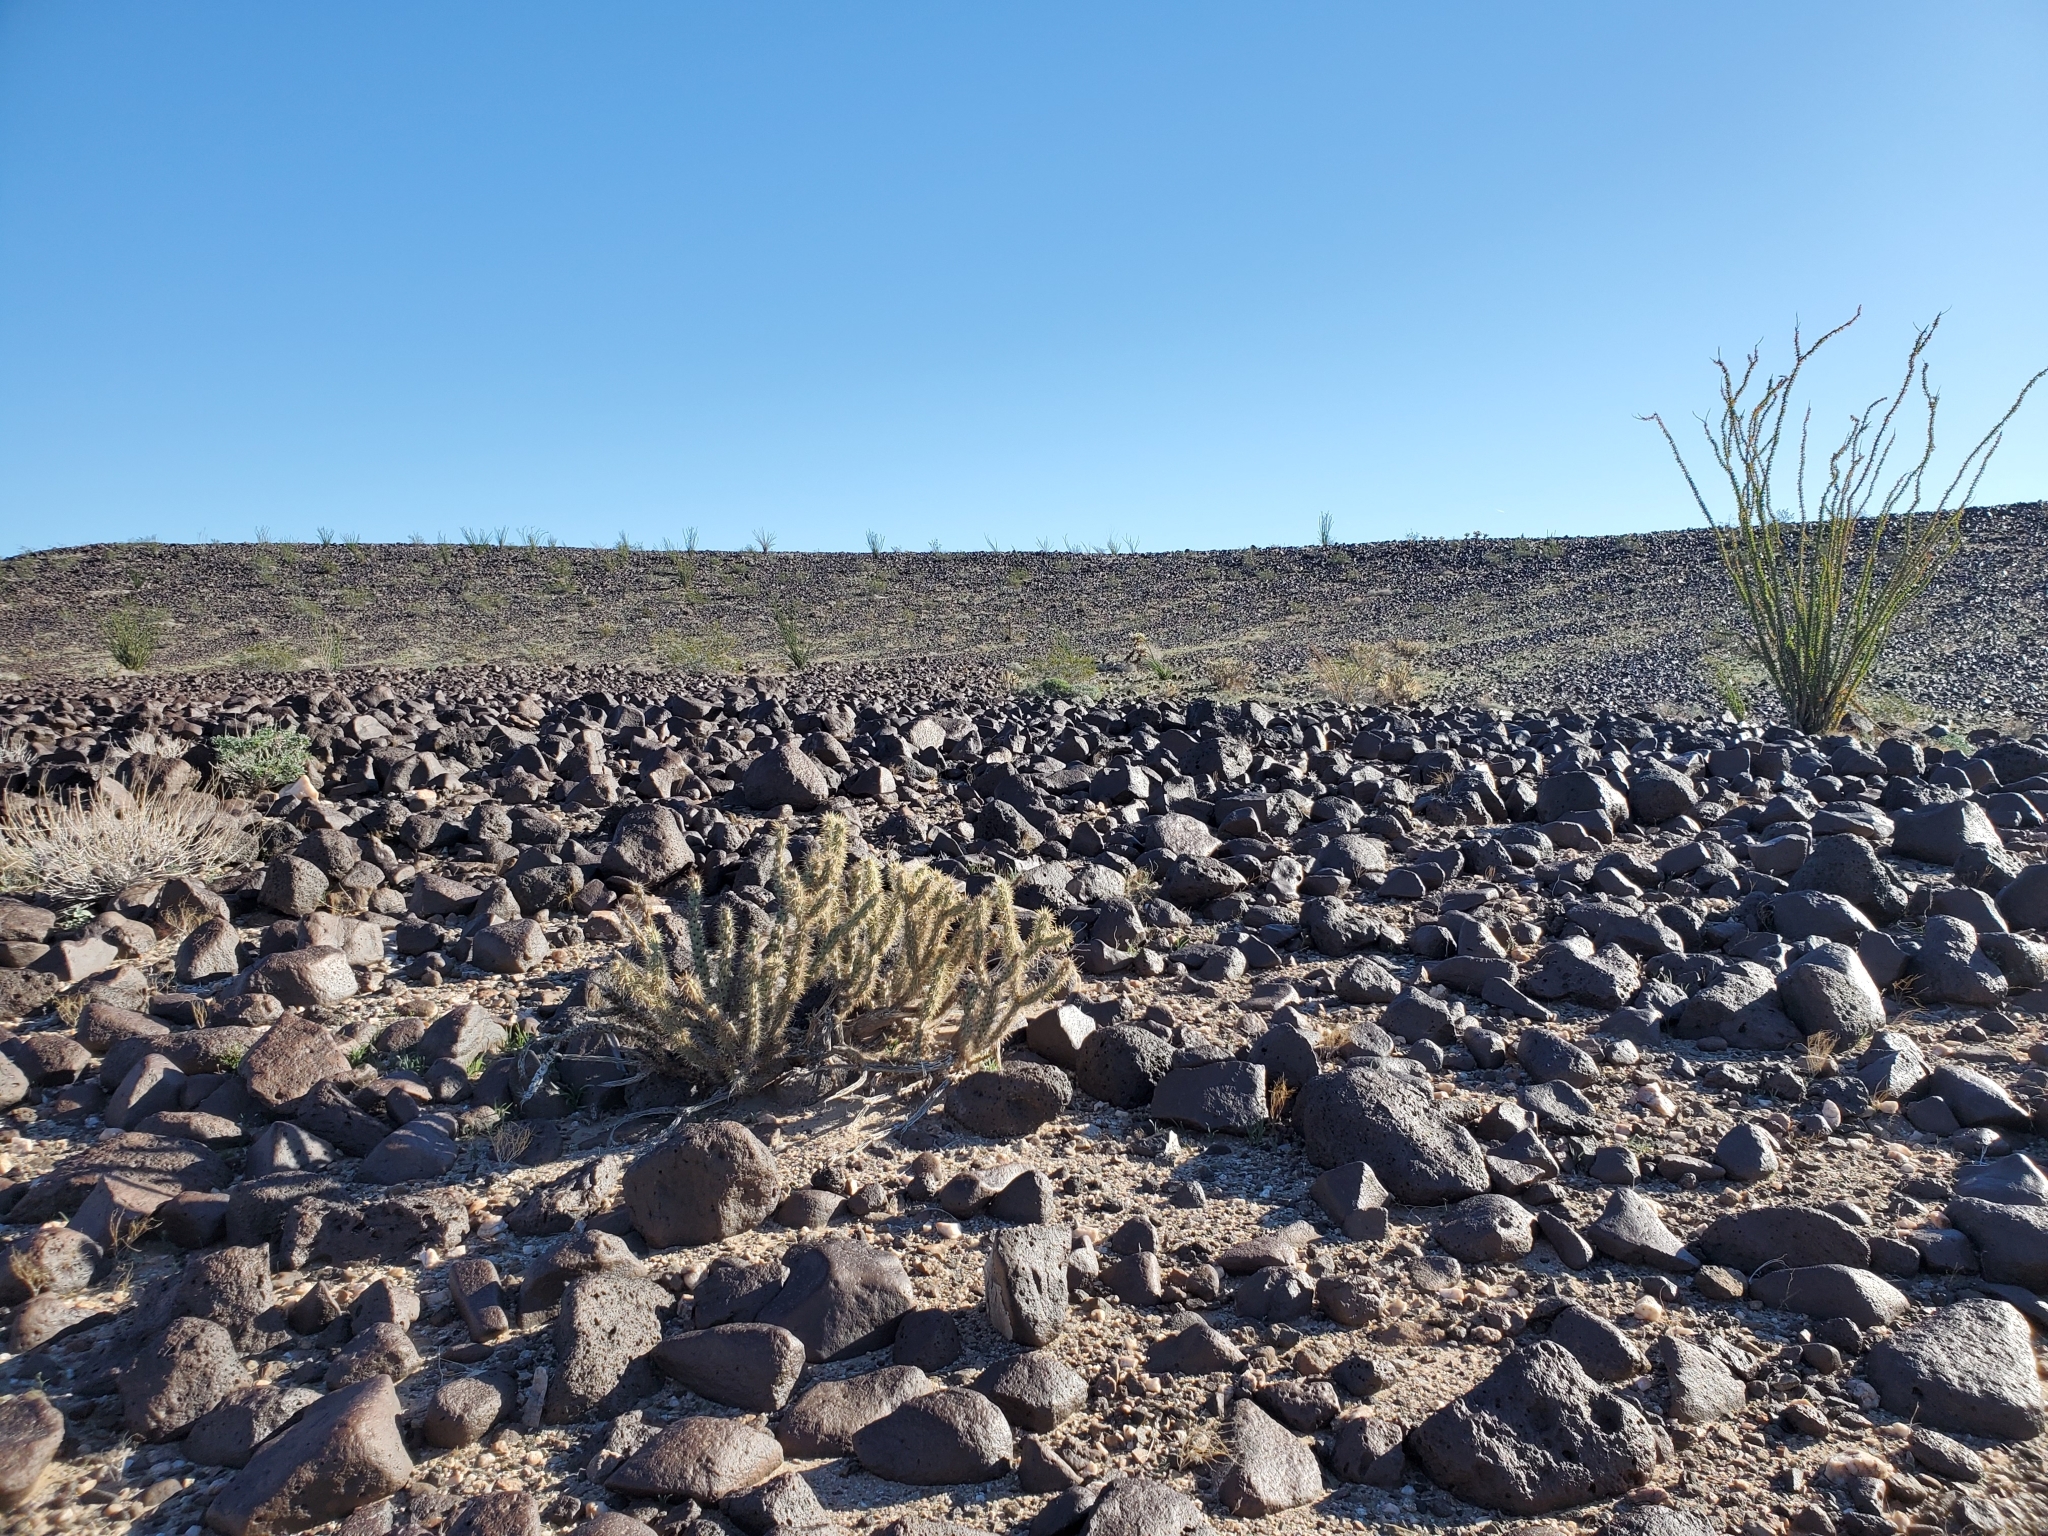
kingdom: Plantae
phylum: Tracheophyta
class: Magnoliopsida
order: Caryophyllales
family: Cactaceae
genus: Cylindropuntia
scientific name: Cylindropuntia acanthocarpa
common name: Buckhorn cholla
